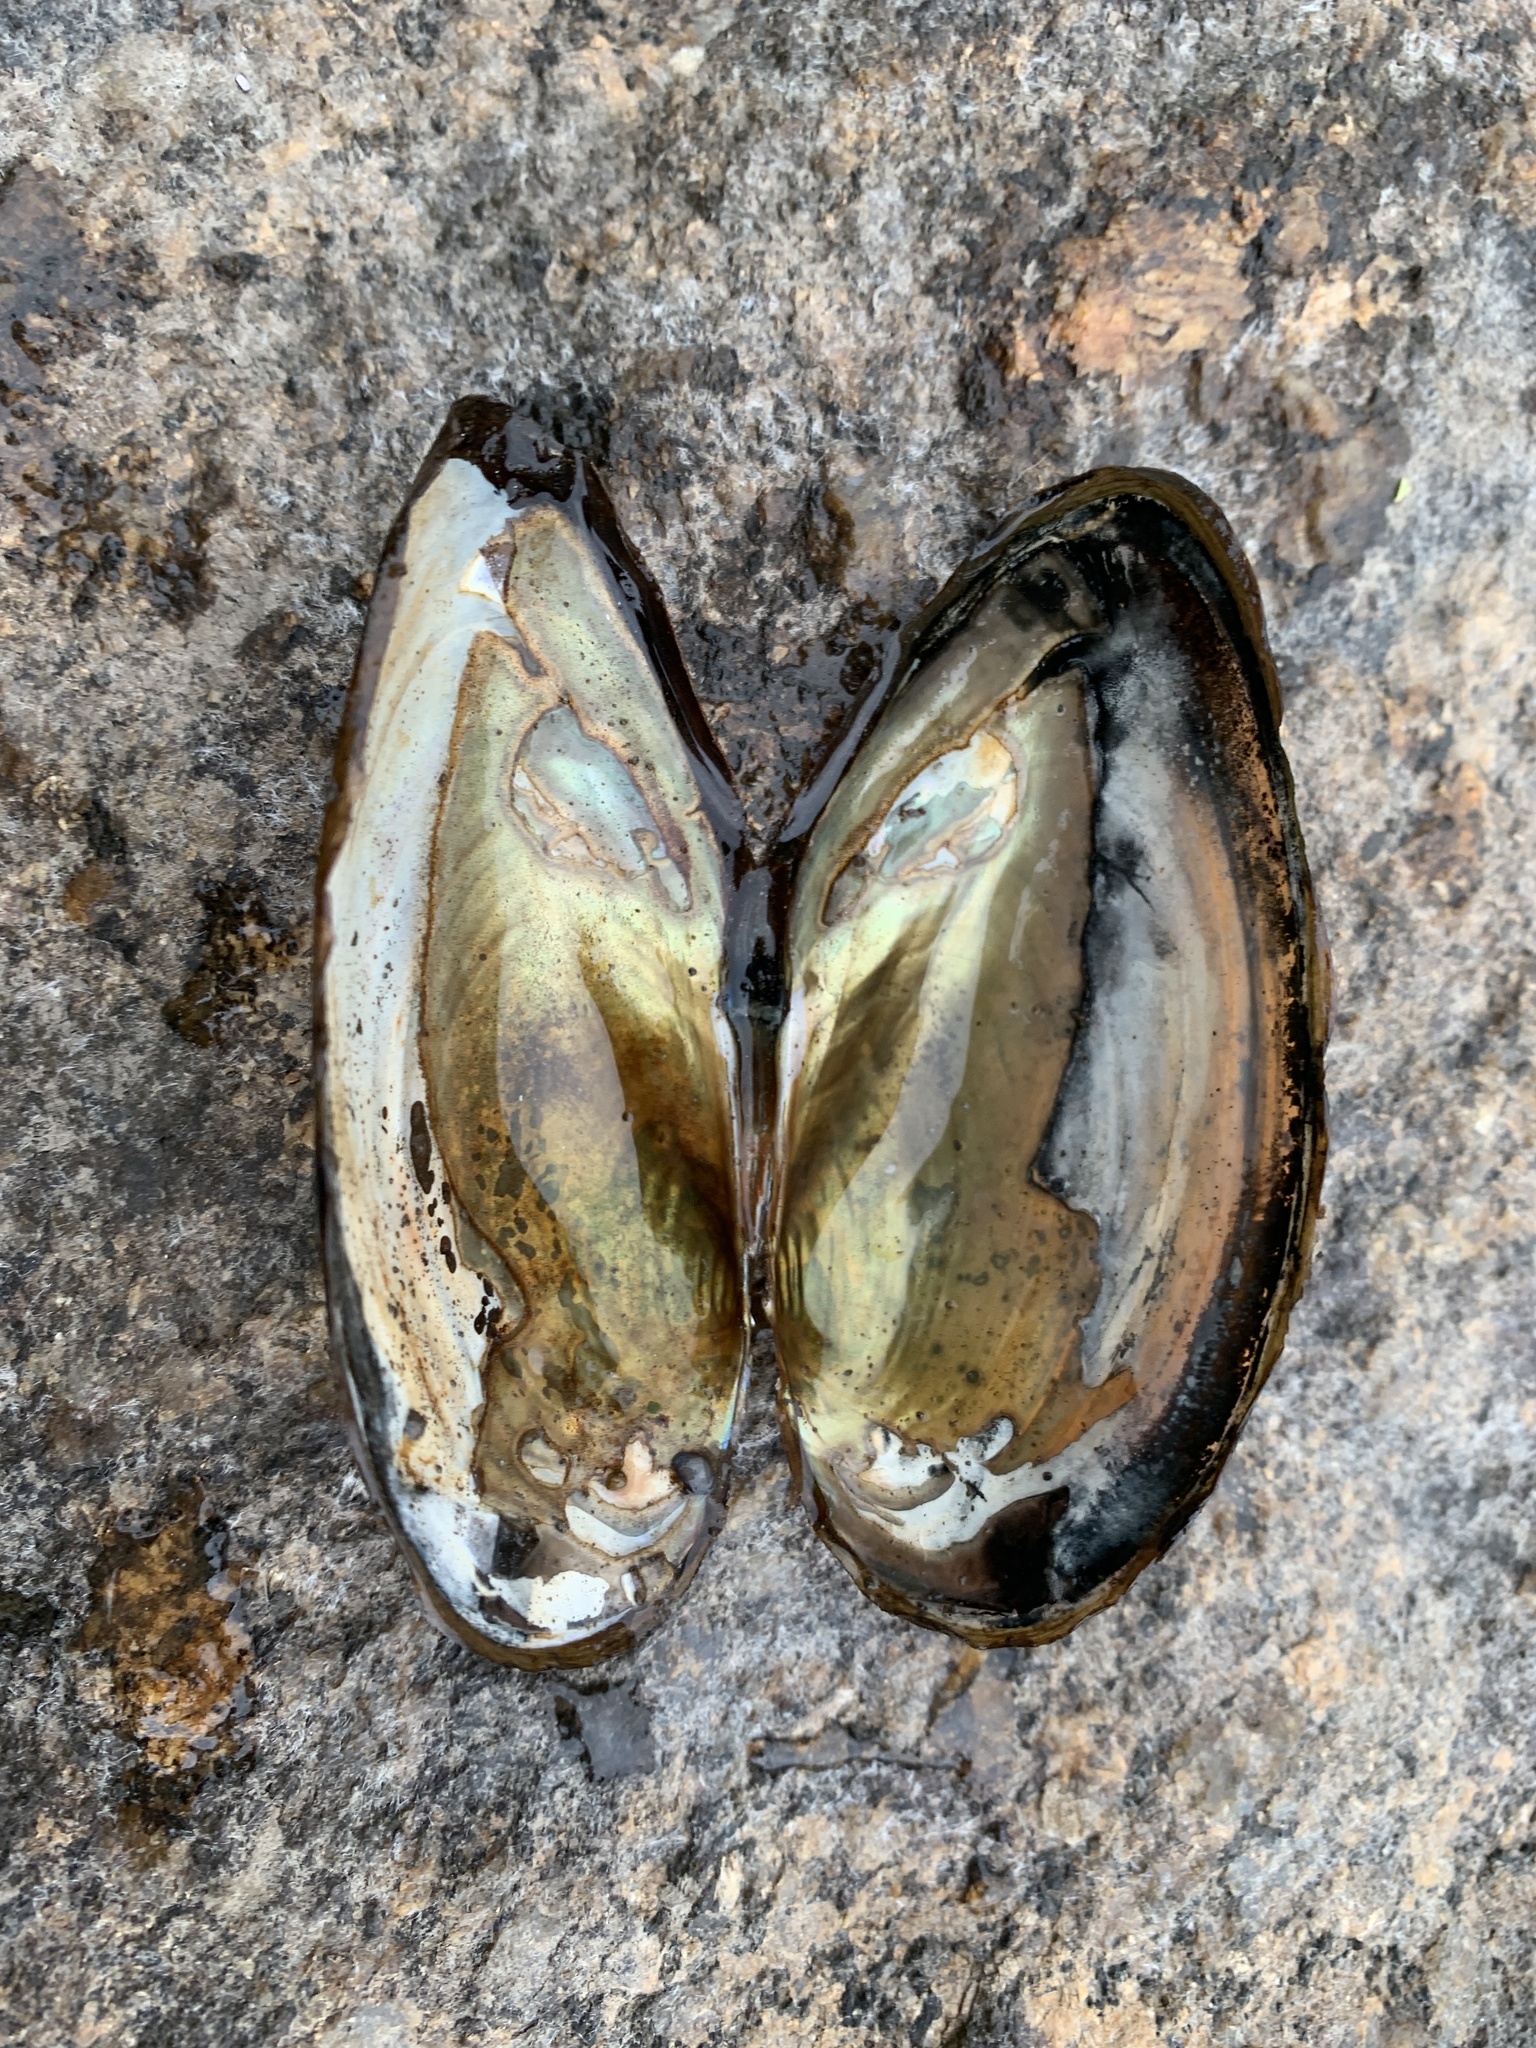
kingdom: Animalia
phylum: Mollusca
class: Bivalvia
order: Unionida
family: Unionidae
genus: Pyganodon
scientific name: Pyganodon cataracta
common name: Eastern floater
